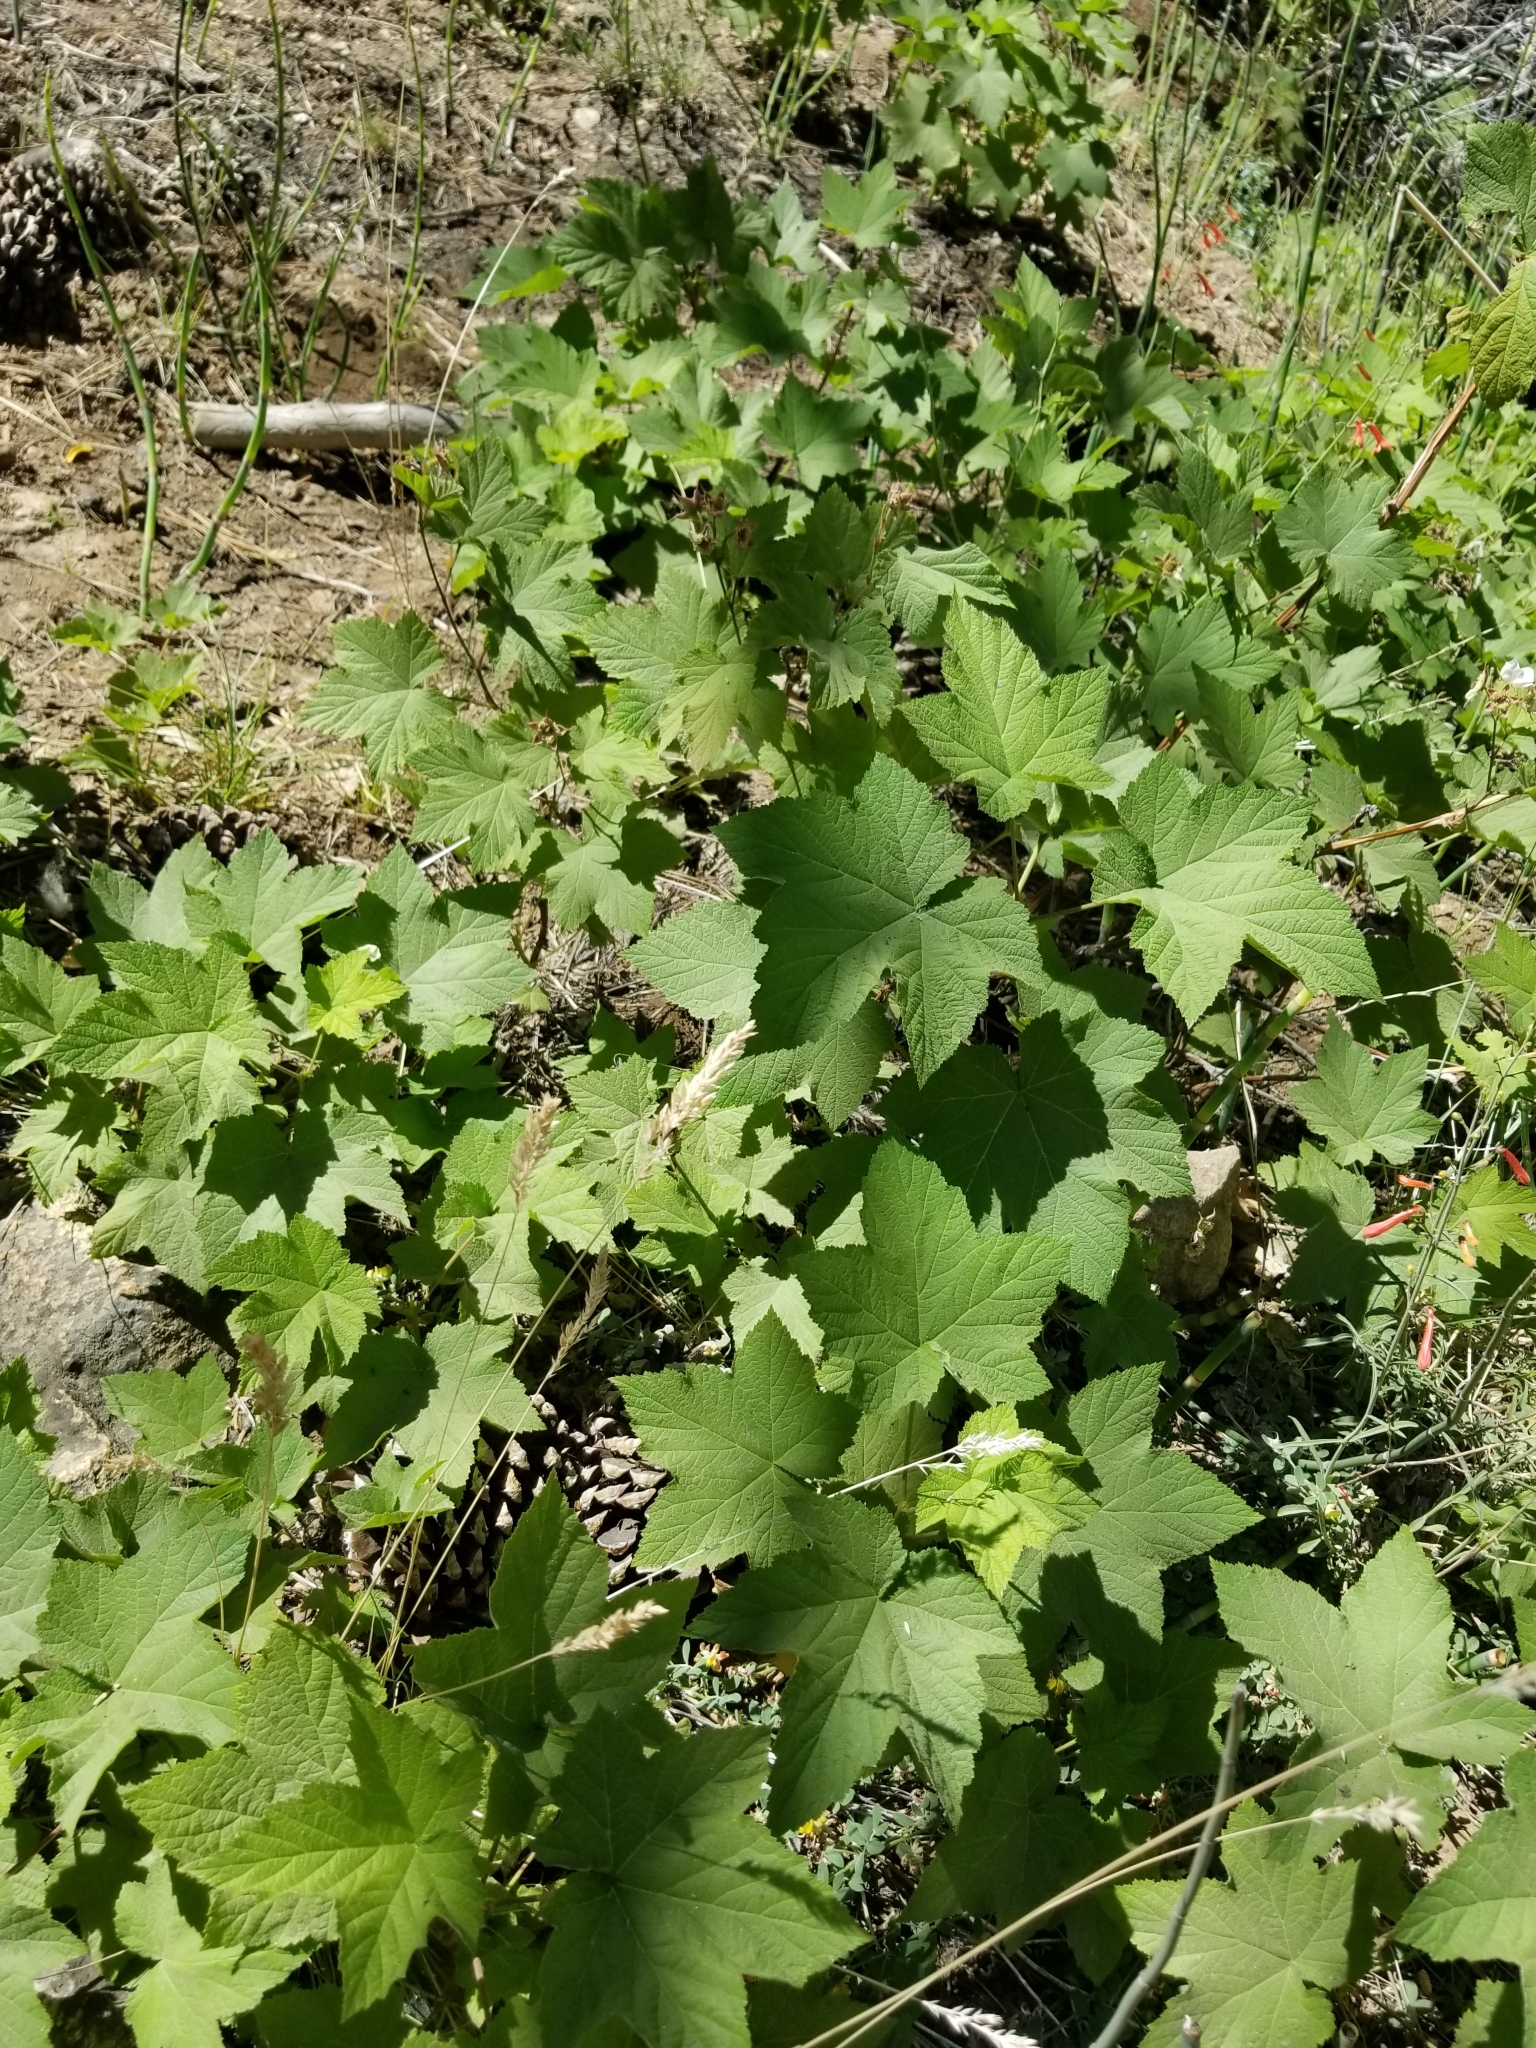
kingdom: Plantae
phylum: Tracheophyta
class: Magnoliopsida
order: Rosales
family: Rosaceae
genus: Rubus
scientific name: Rubus parviflorus
